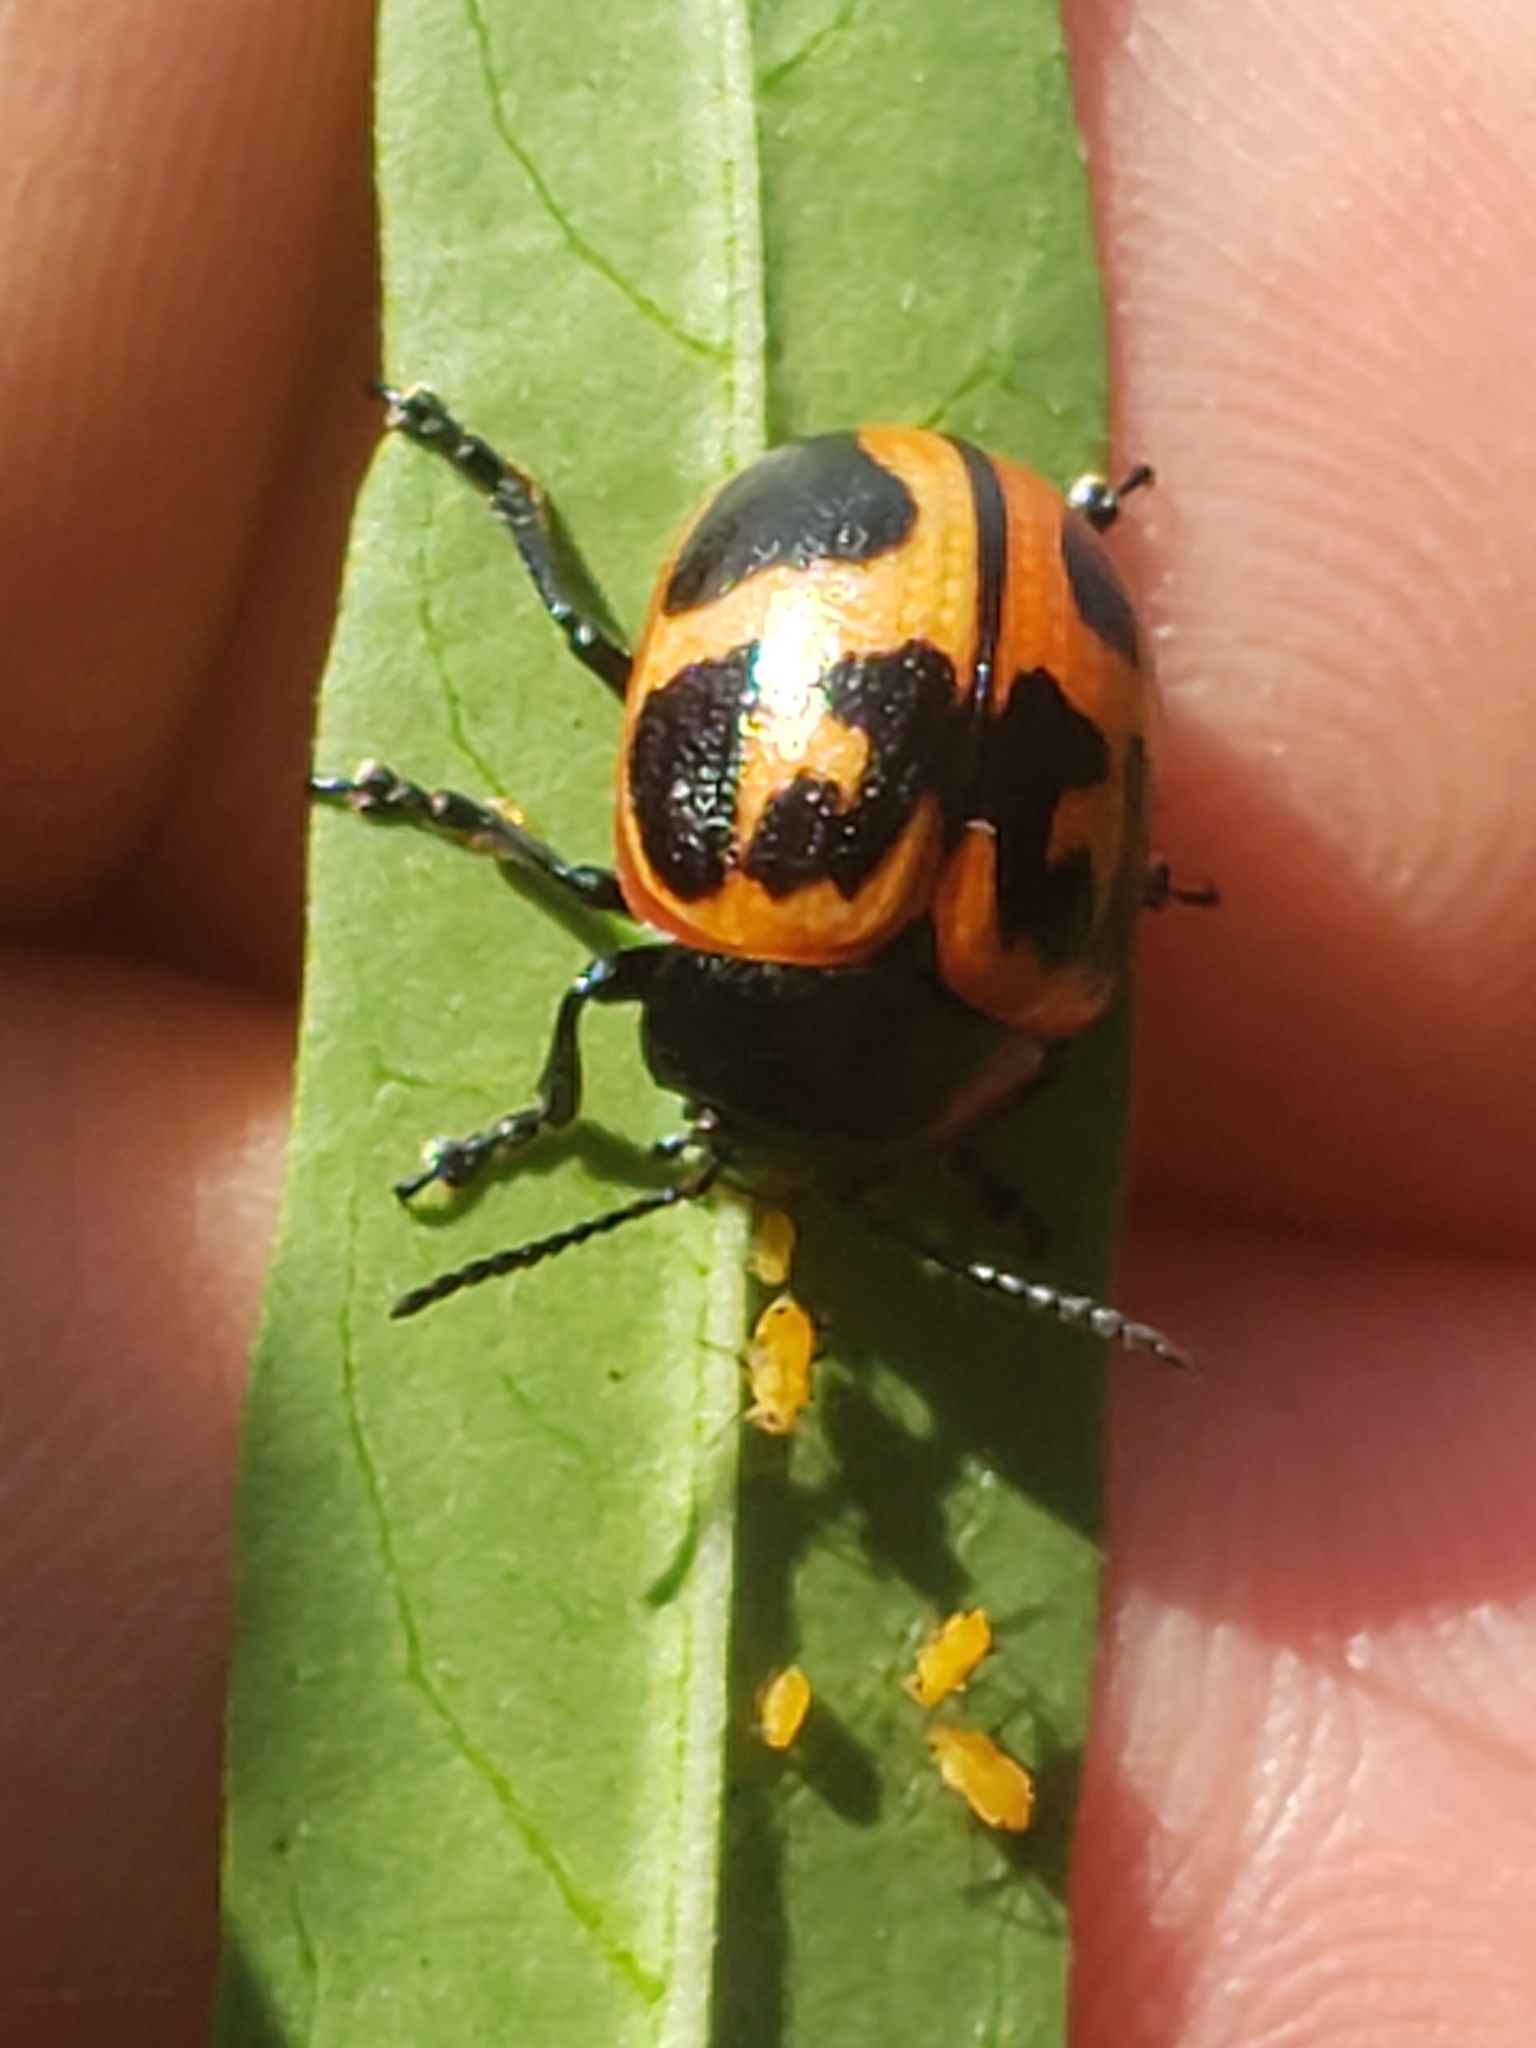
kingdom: Animalia
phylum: Arthropoda
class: Insecta
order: Coleoptera
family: Chrysomelidae
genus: Labidomera
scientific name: Labidomera clivicollis
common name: Swamp milkweed leaf beetle
